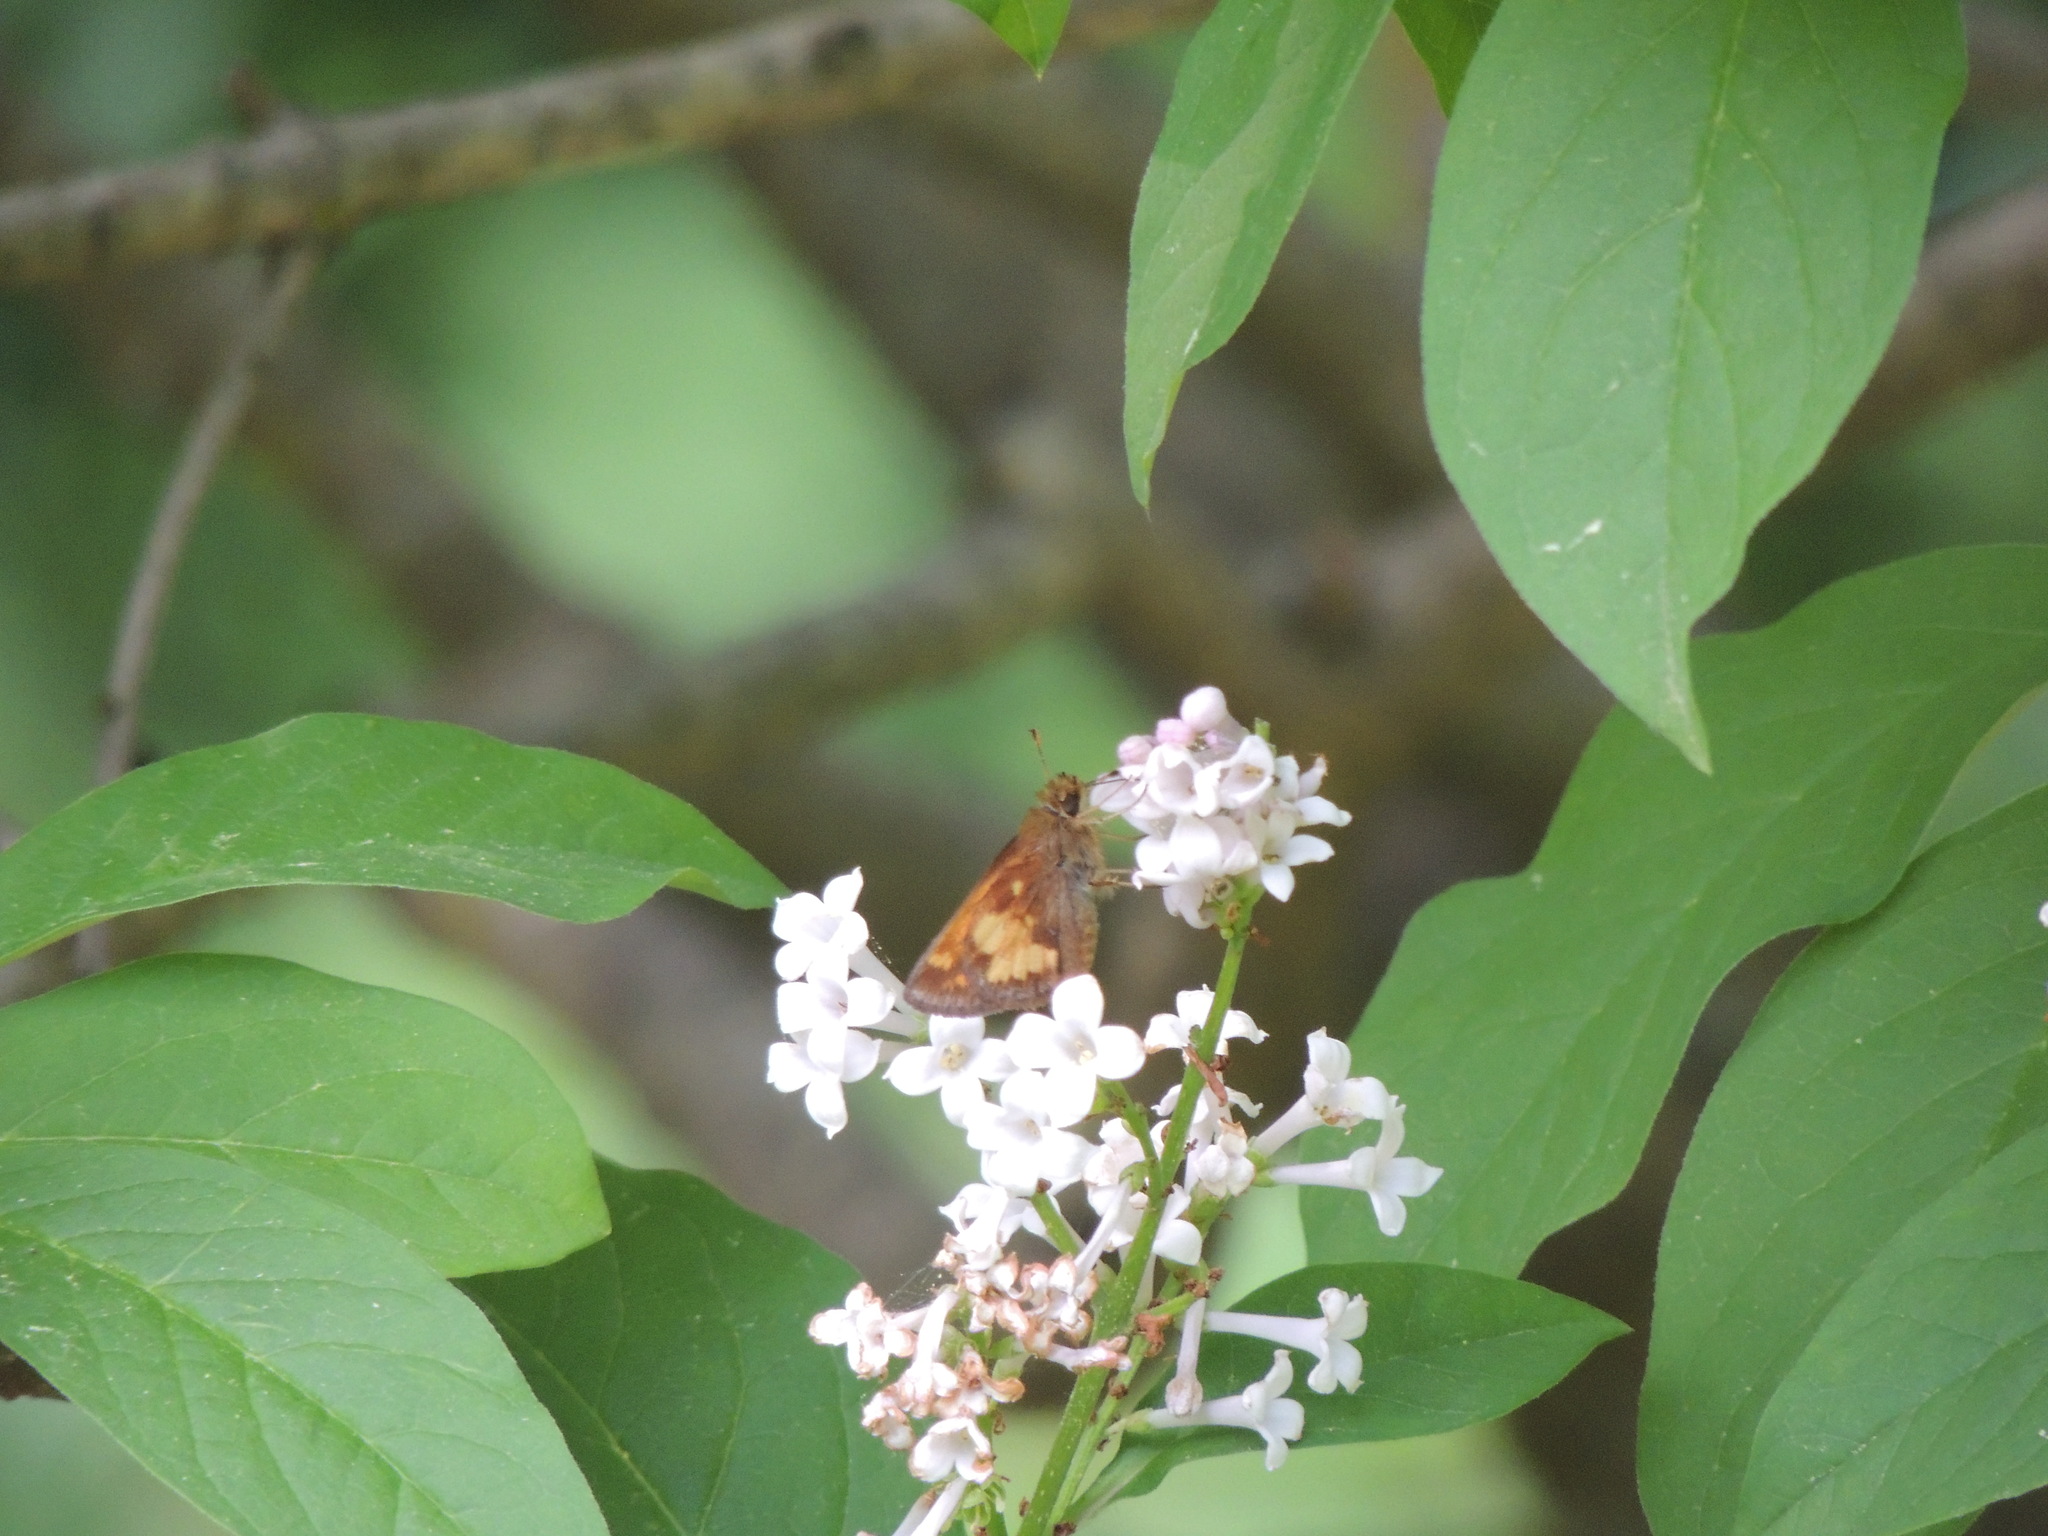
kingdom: Animalia
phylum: Arthropoda
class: Insecta
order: Lepidoptera
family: Hesperiidae
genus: Lon
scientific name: Lon hobomok
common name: Hobomok skipper
